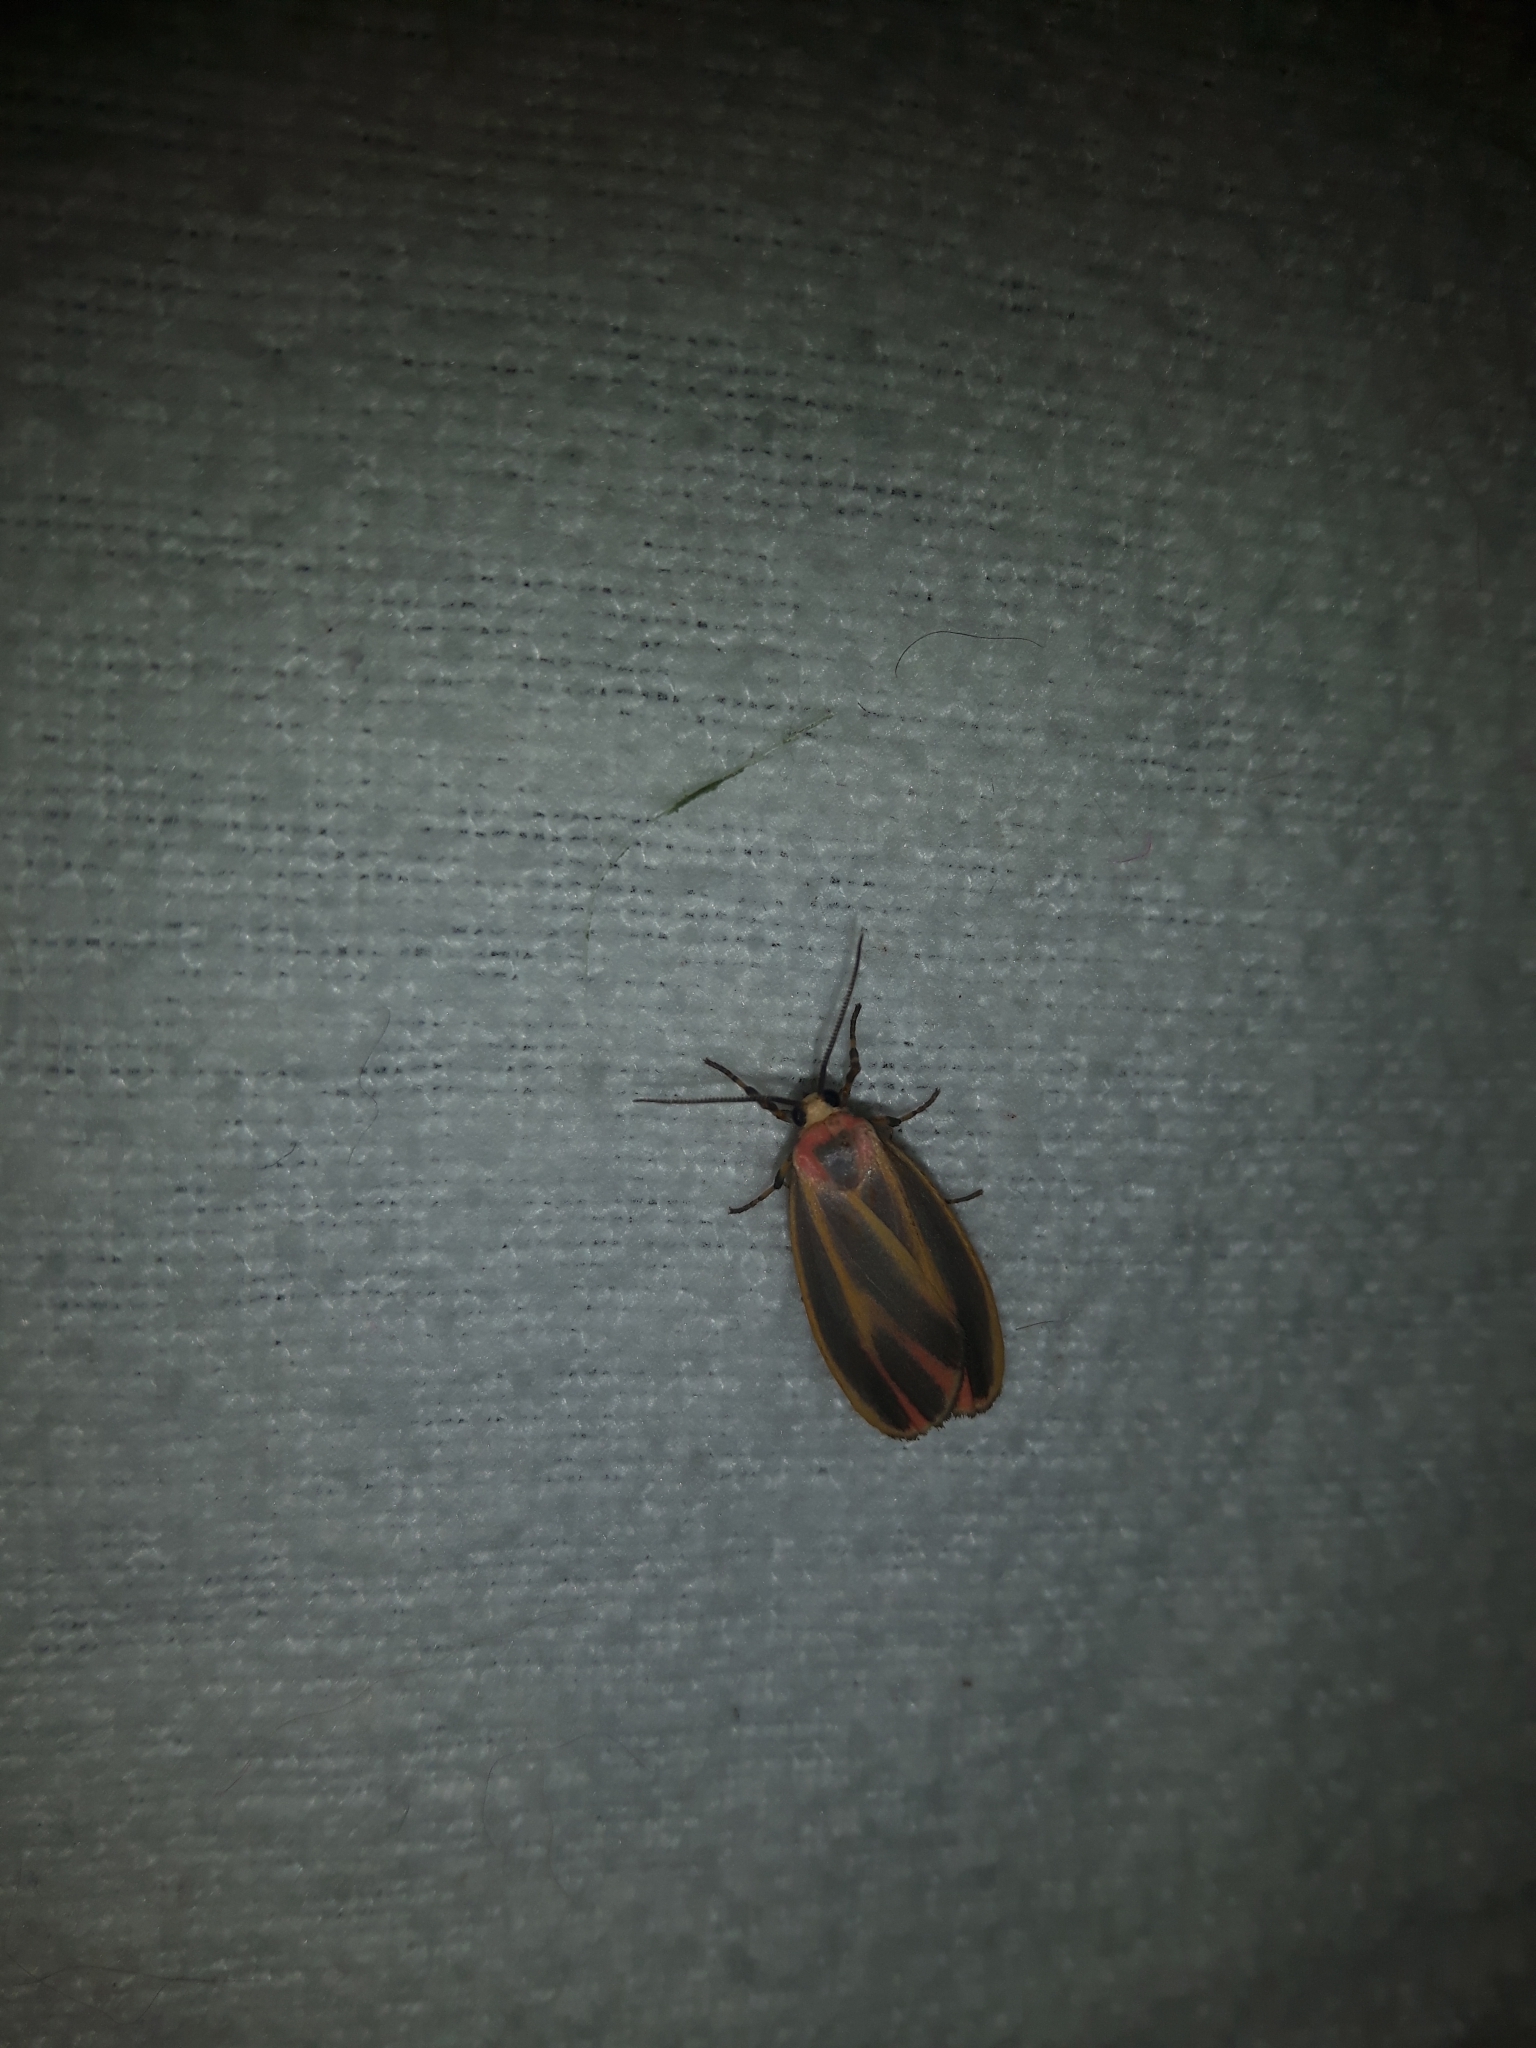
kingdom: Animalia
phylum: Arthropoda
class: Insecta
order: Lepidoptera
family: Erebidae
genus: Hypoprepia
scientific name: Hypoprepia fucosa
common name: Painted lichen moth
